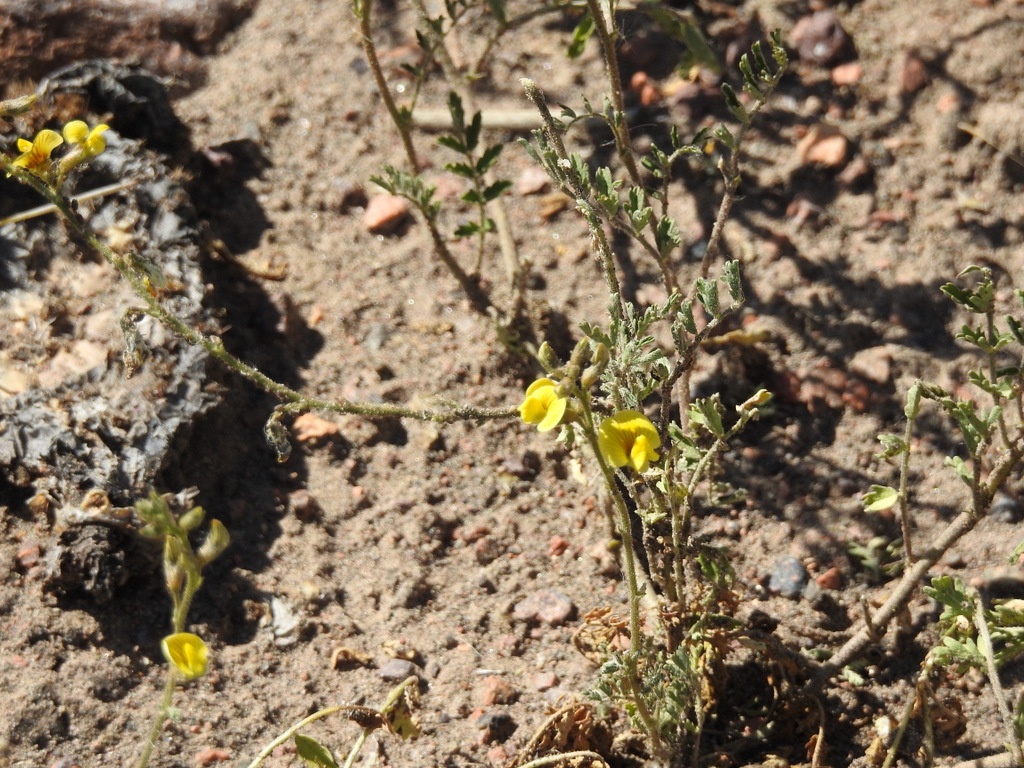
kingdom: Plantae
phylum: Tracheophyta
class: Magnoliopsida
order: Fabales
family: Fabaceae
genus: Adesmia
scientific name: Adesmia muricata
